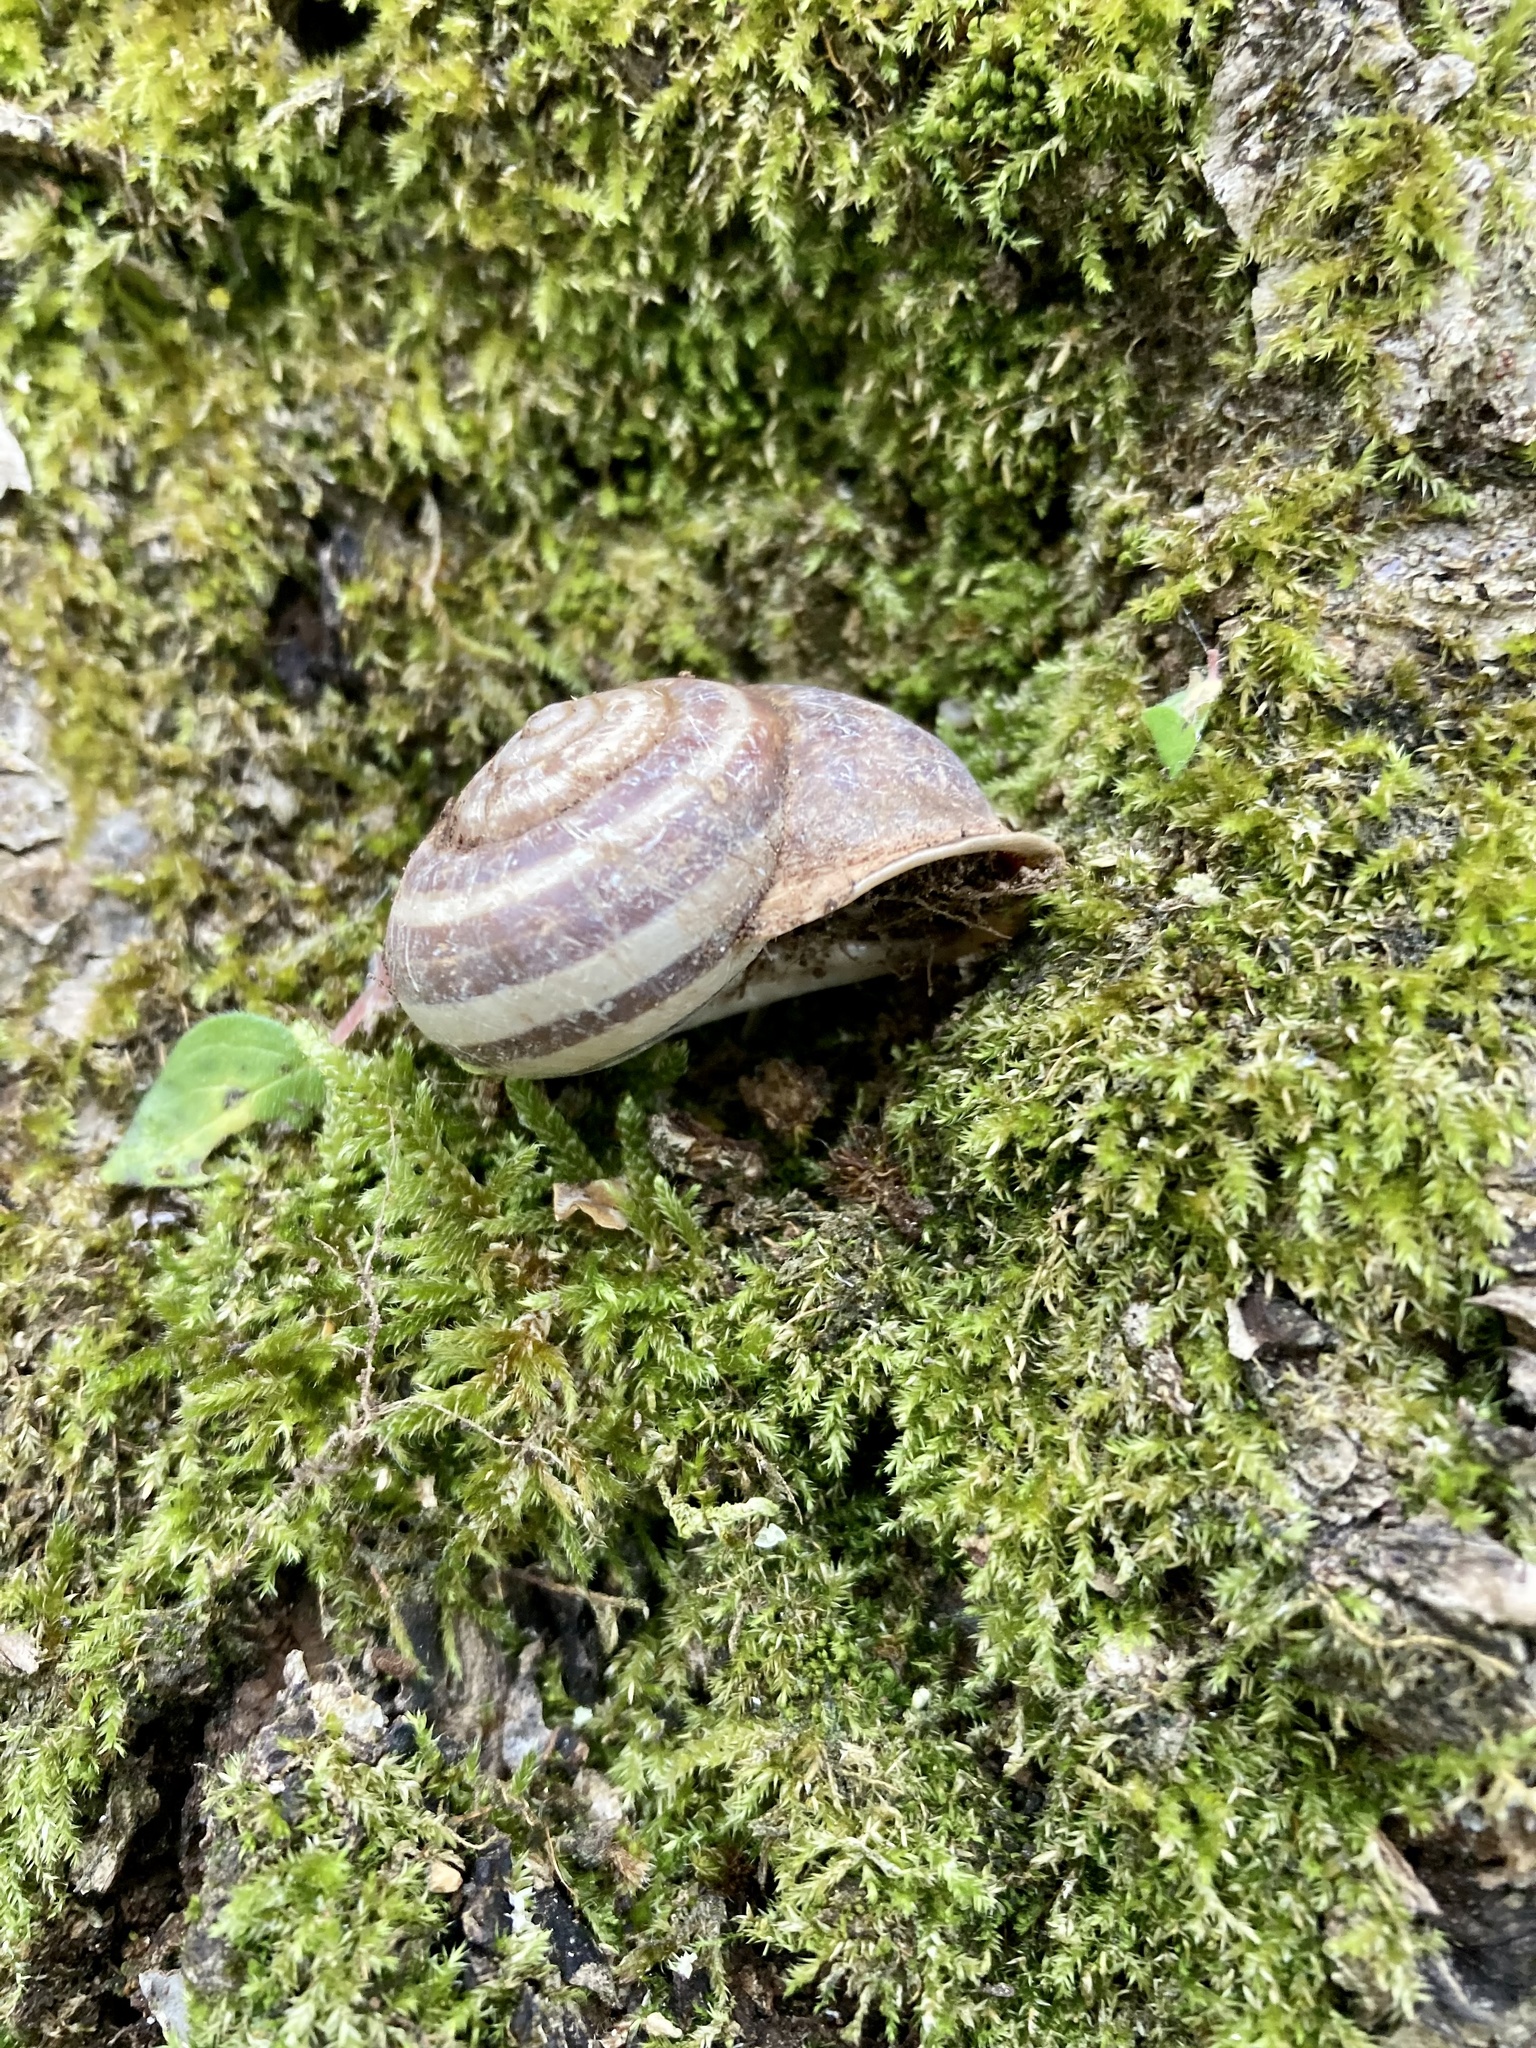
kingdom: Animalia
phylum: Mollusca
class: Gastropoda
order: Stylommatophora
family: Helicidae
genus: Eobania
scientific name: Eobania vermiculata
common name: Chocolateband snail
